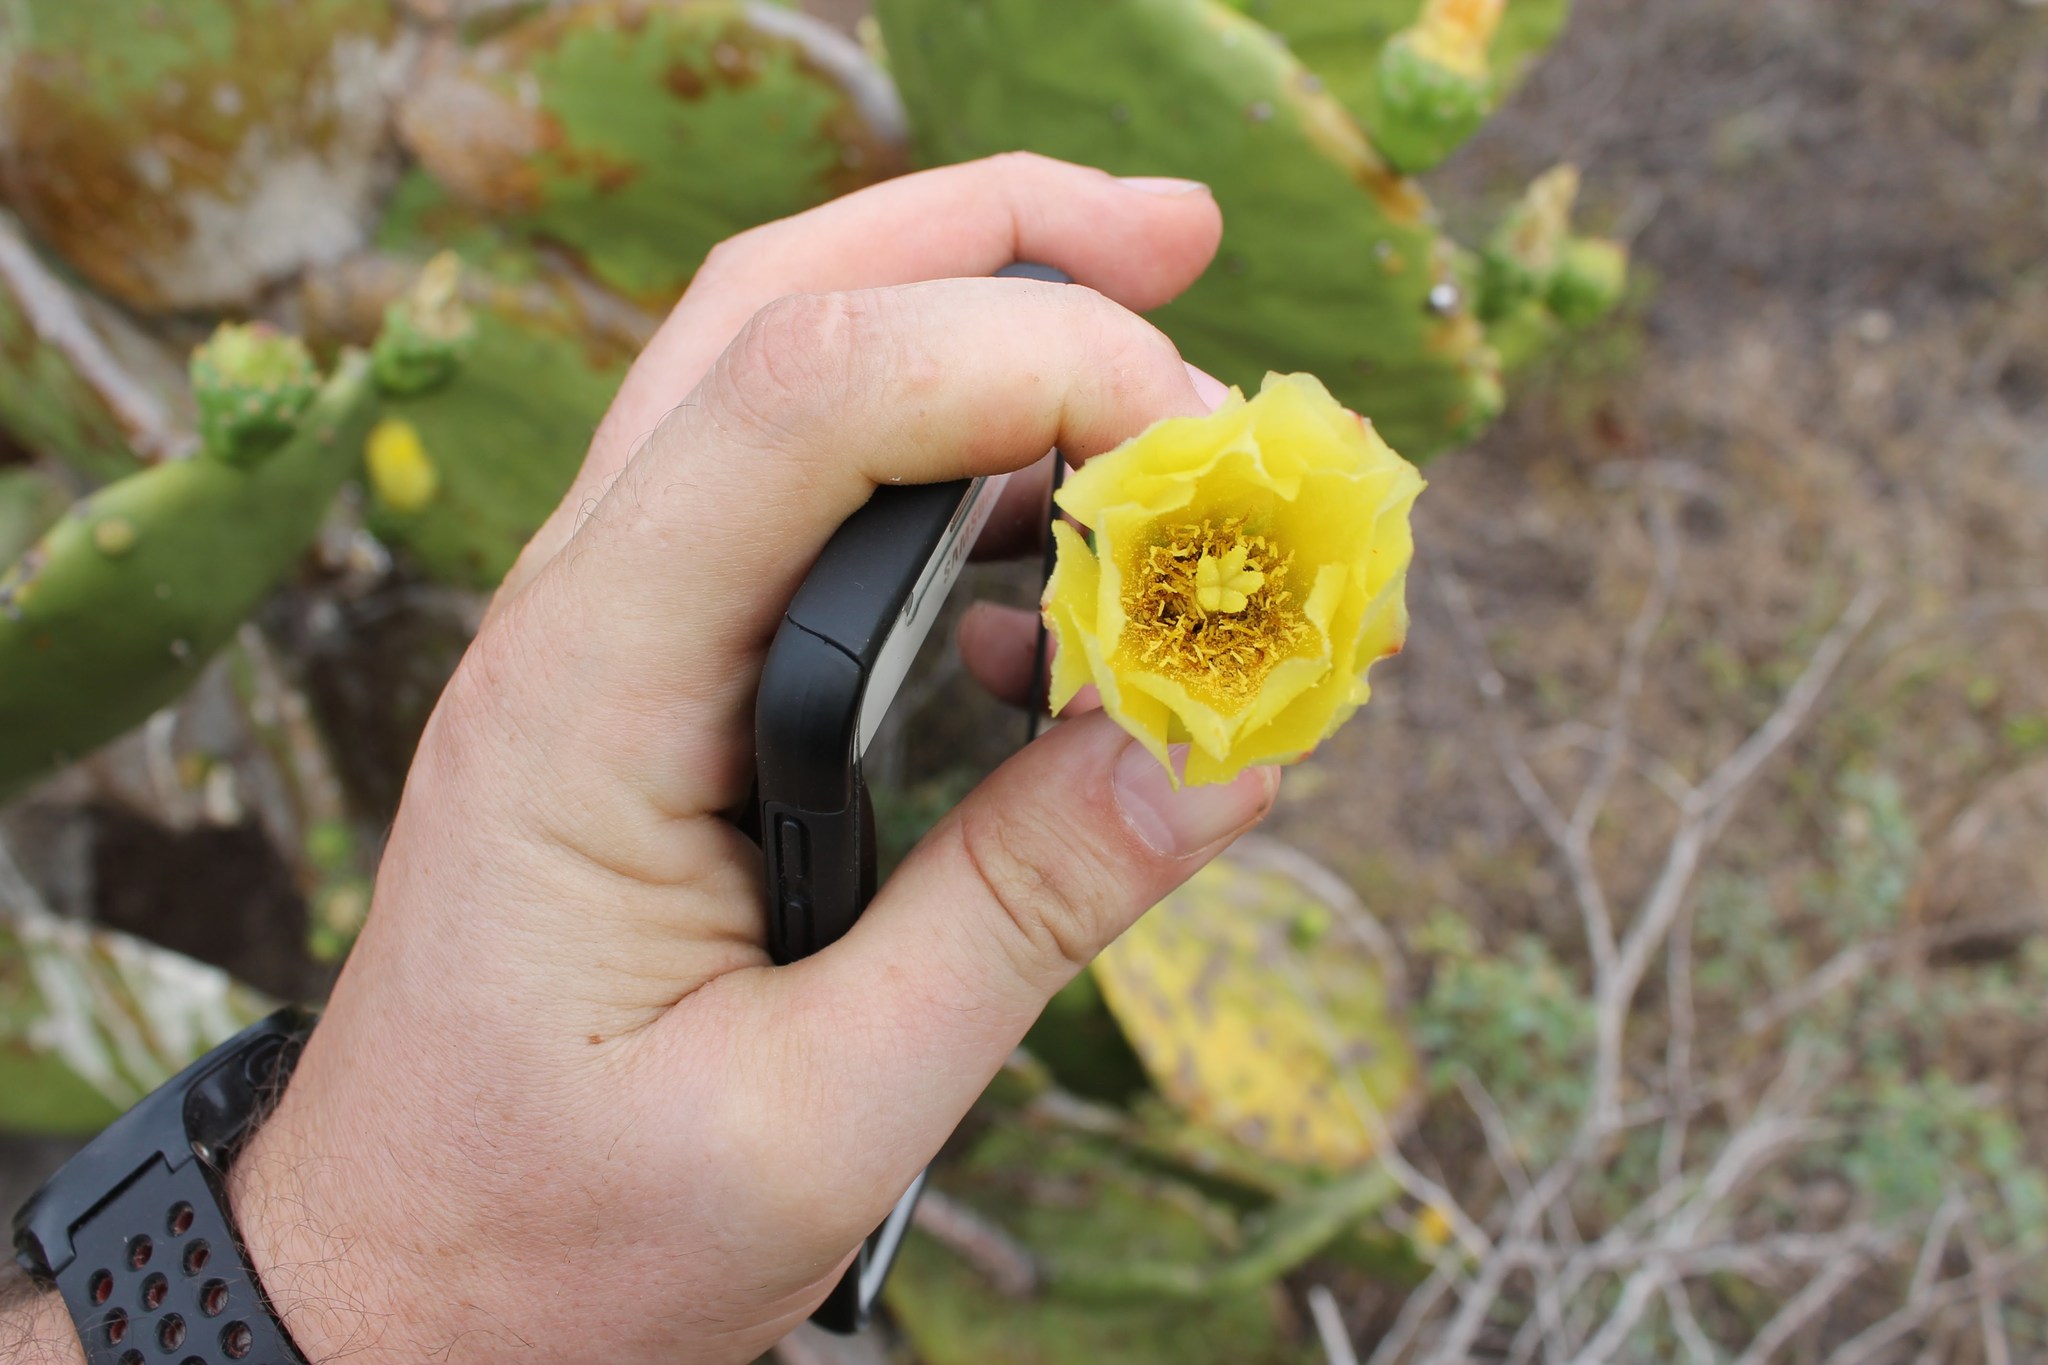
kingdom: Plantae
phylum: Tracheophyta
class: Magnoliopsida
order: Caryophyllales
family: Cactaceae
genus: Opuntia
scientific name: Opuntia excelsa
